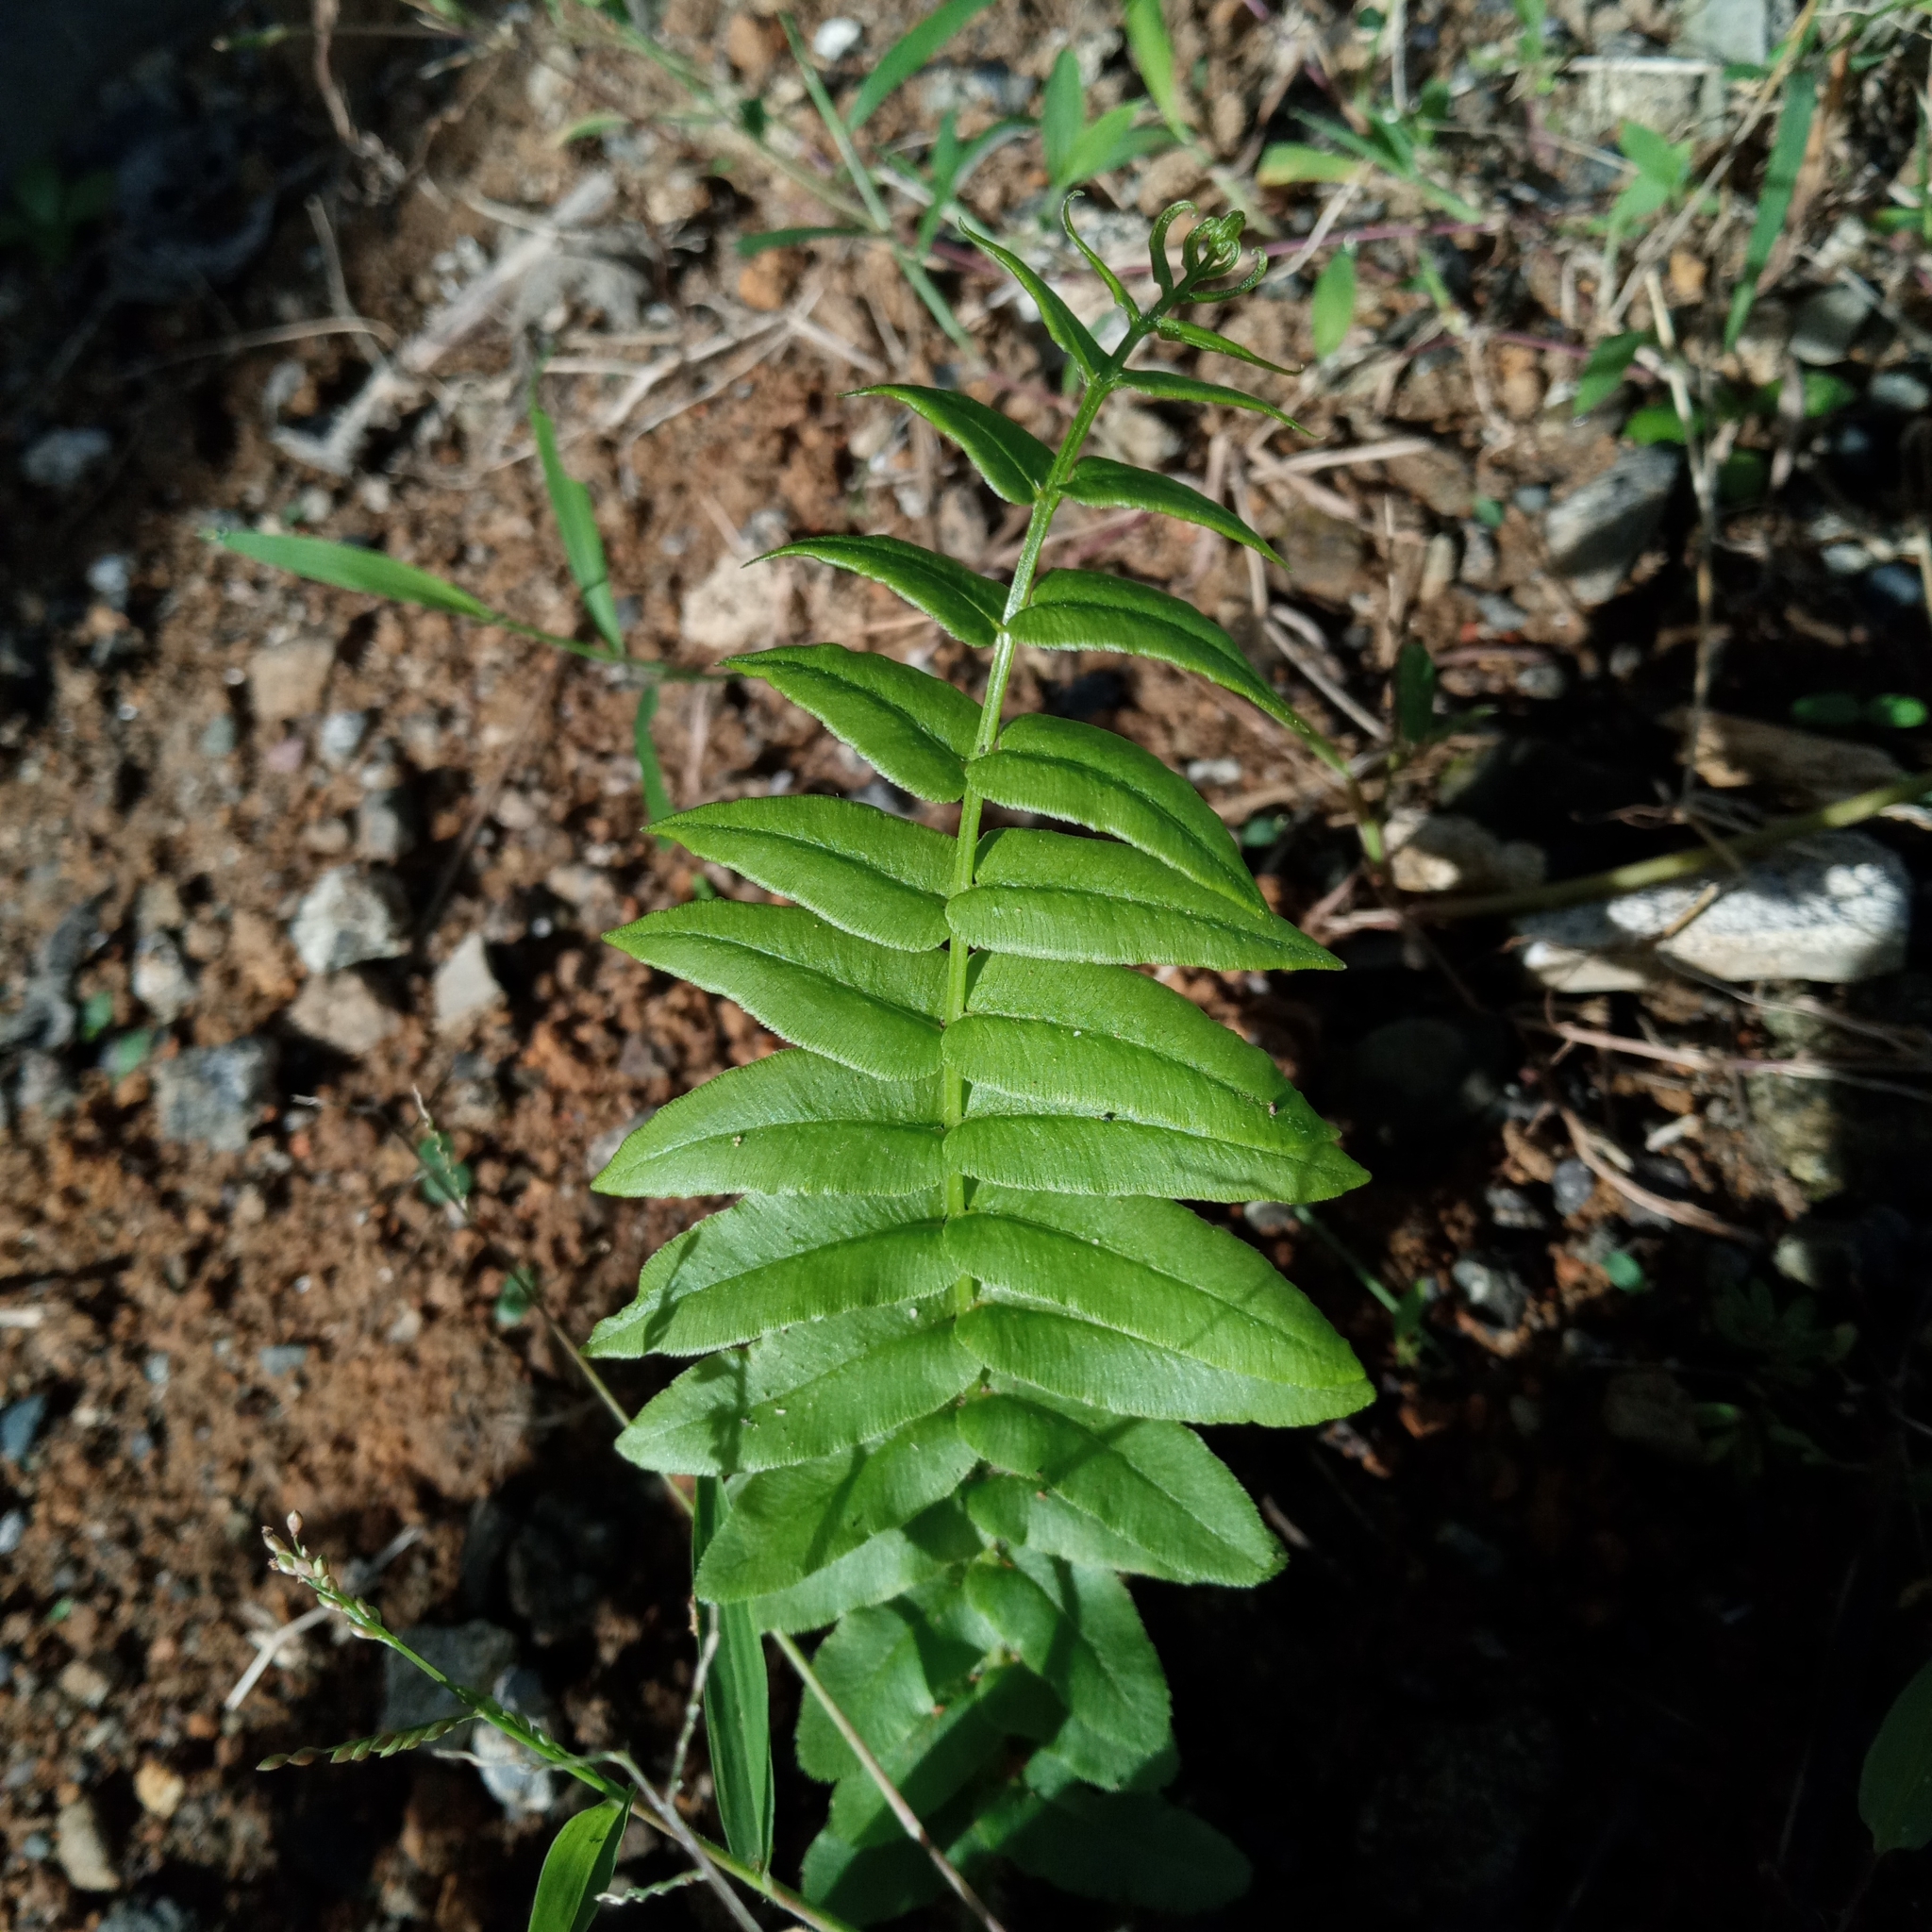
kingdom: Plantae
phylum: Tracheophyta
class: Polypodiopsida
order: Polypodiales
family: Pteridaceae
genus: Pteris
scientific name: Pteris vittata
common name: Ladder brake
